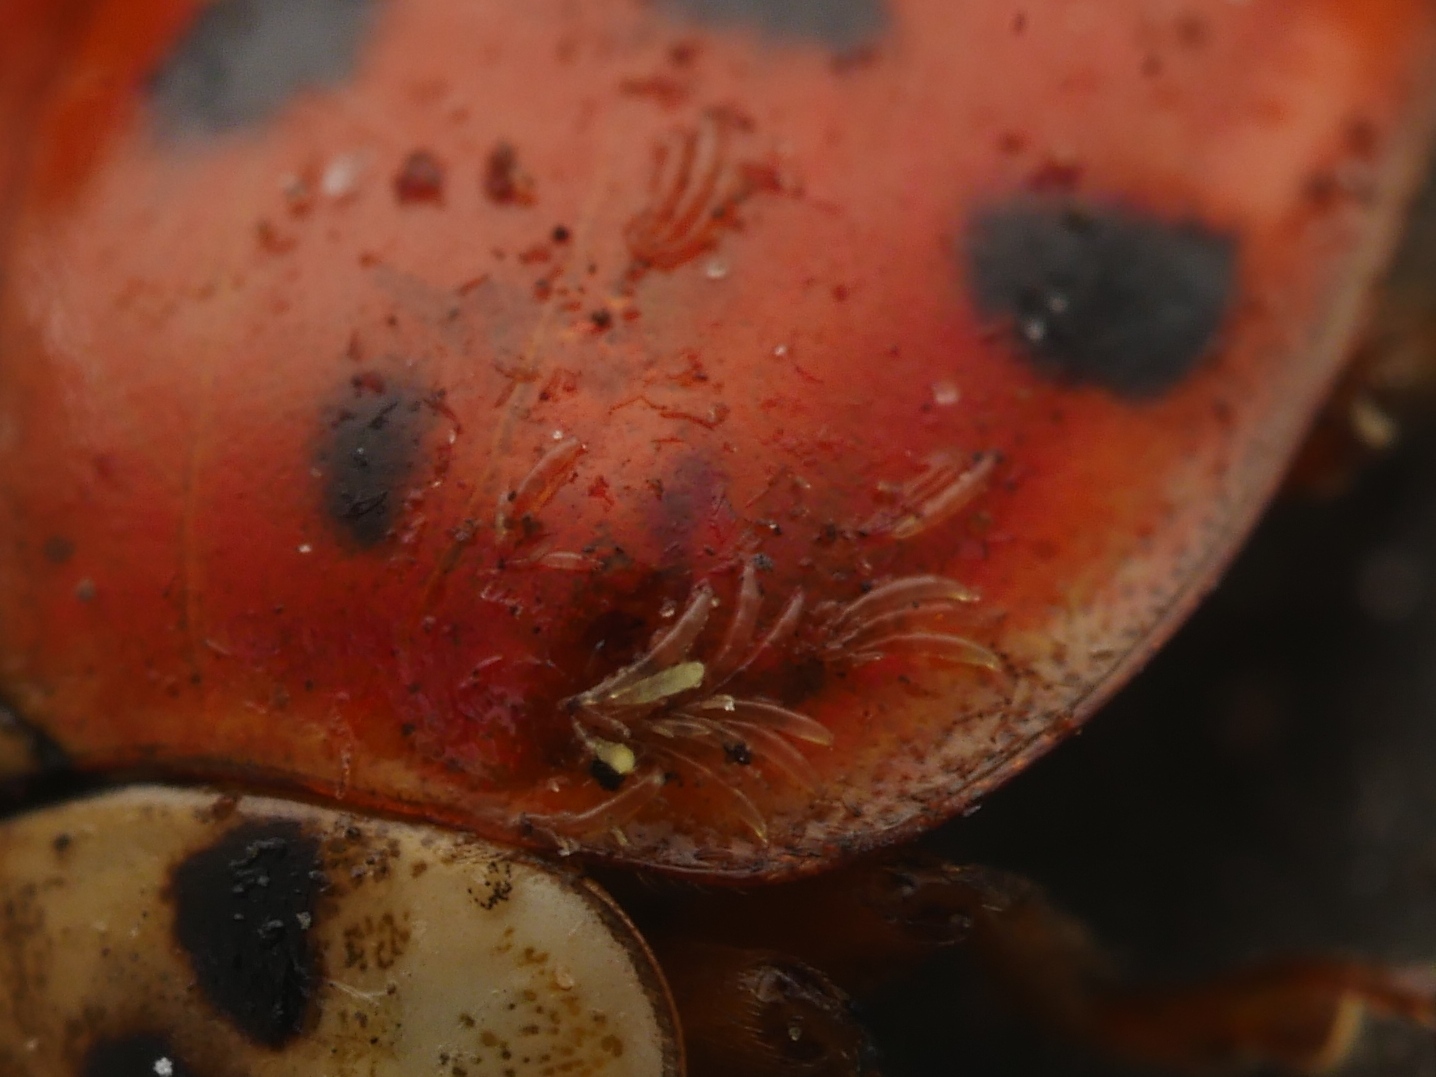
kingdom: Fungi
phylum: Ascomycota
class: Laboulbeniomycetes
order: Laboulbeniales
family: Laboulbeniaceae
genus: Hesperomyces
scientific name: Hesperomyces harmoniae
